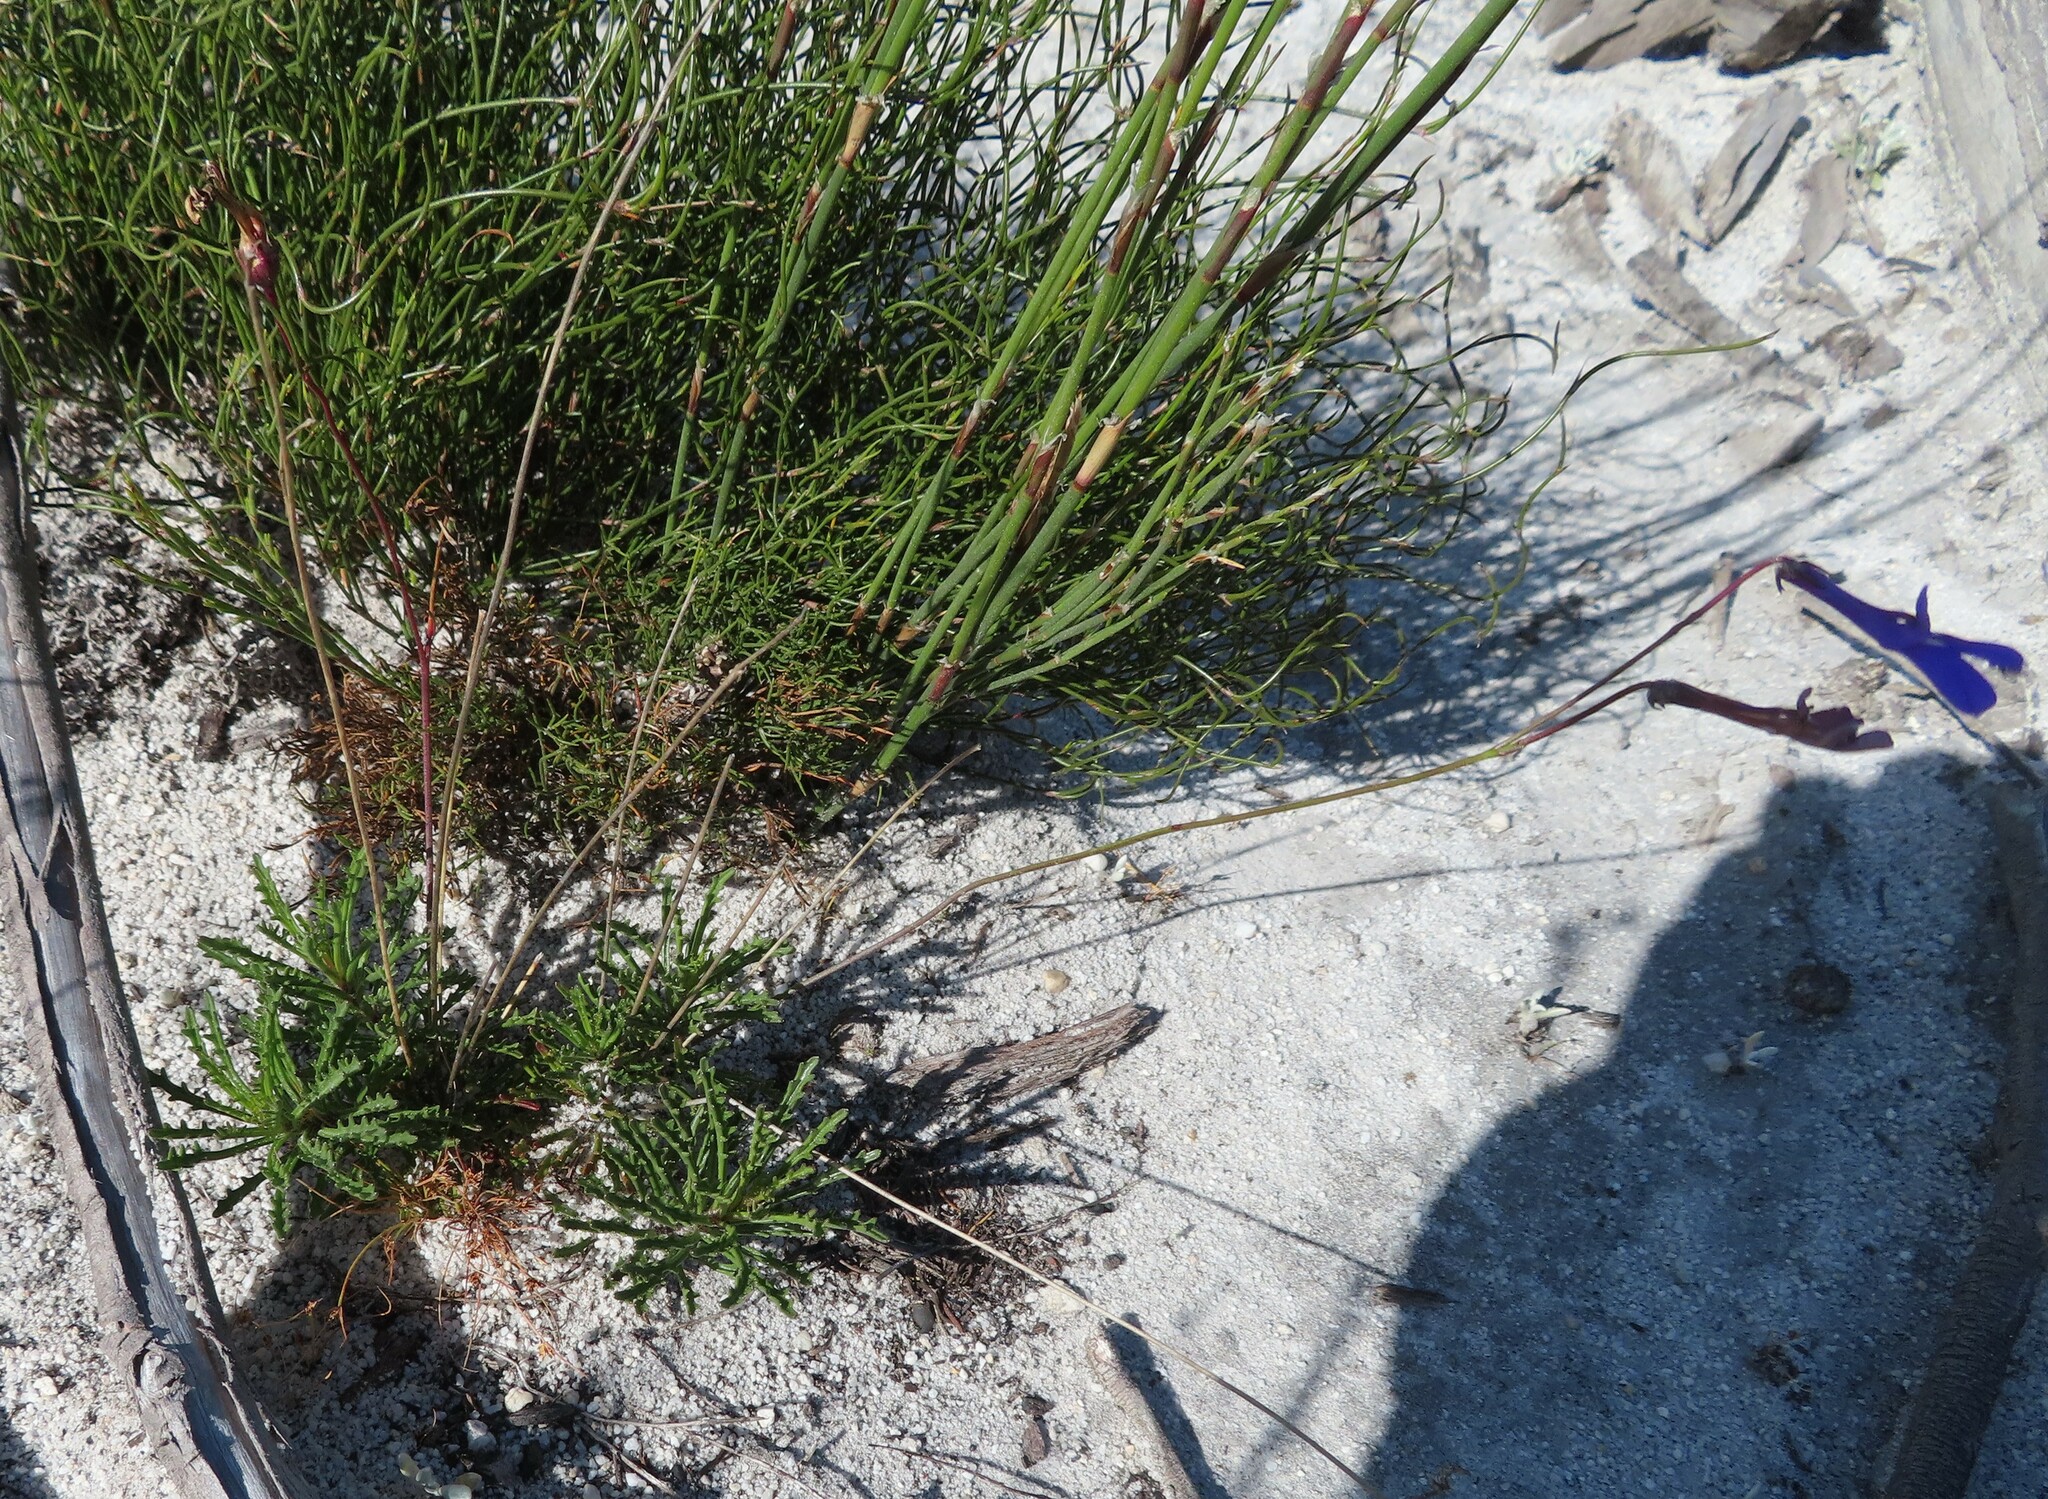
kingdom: Plantae
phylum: Tracheophyta
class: Magnoliopsida
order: Asterales
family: Campanulaceae
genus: Lobelia
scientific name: Lobelia coronopifolia
